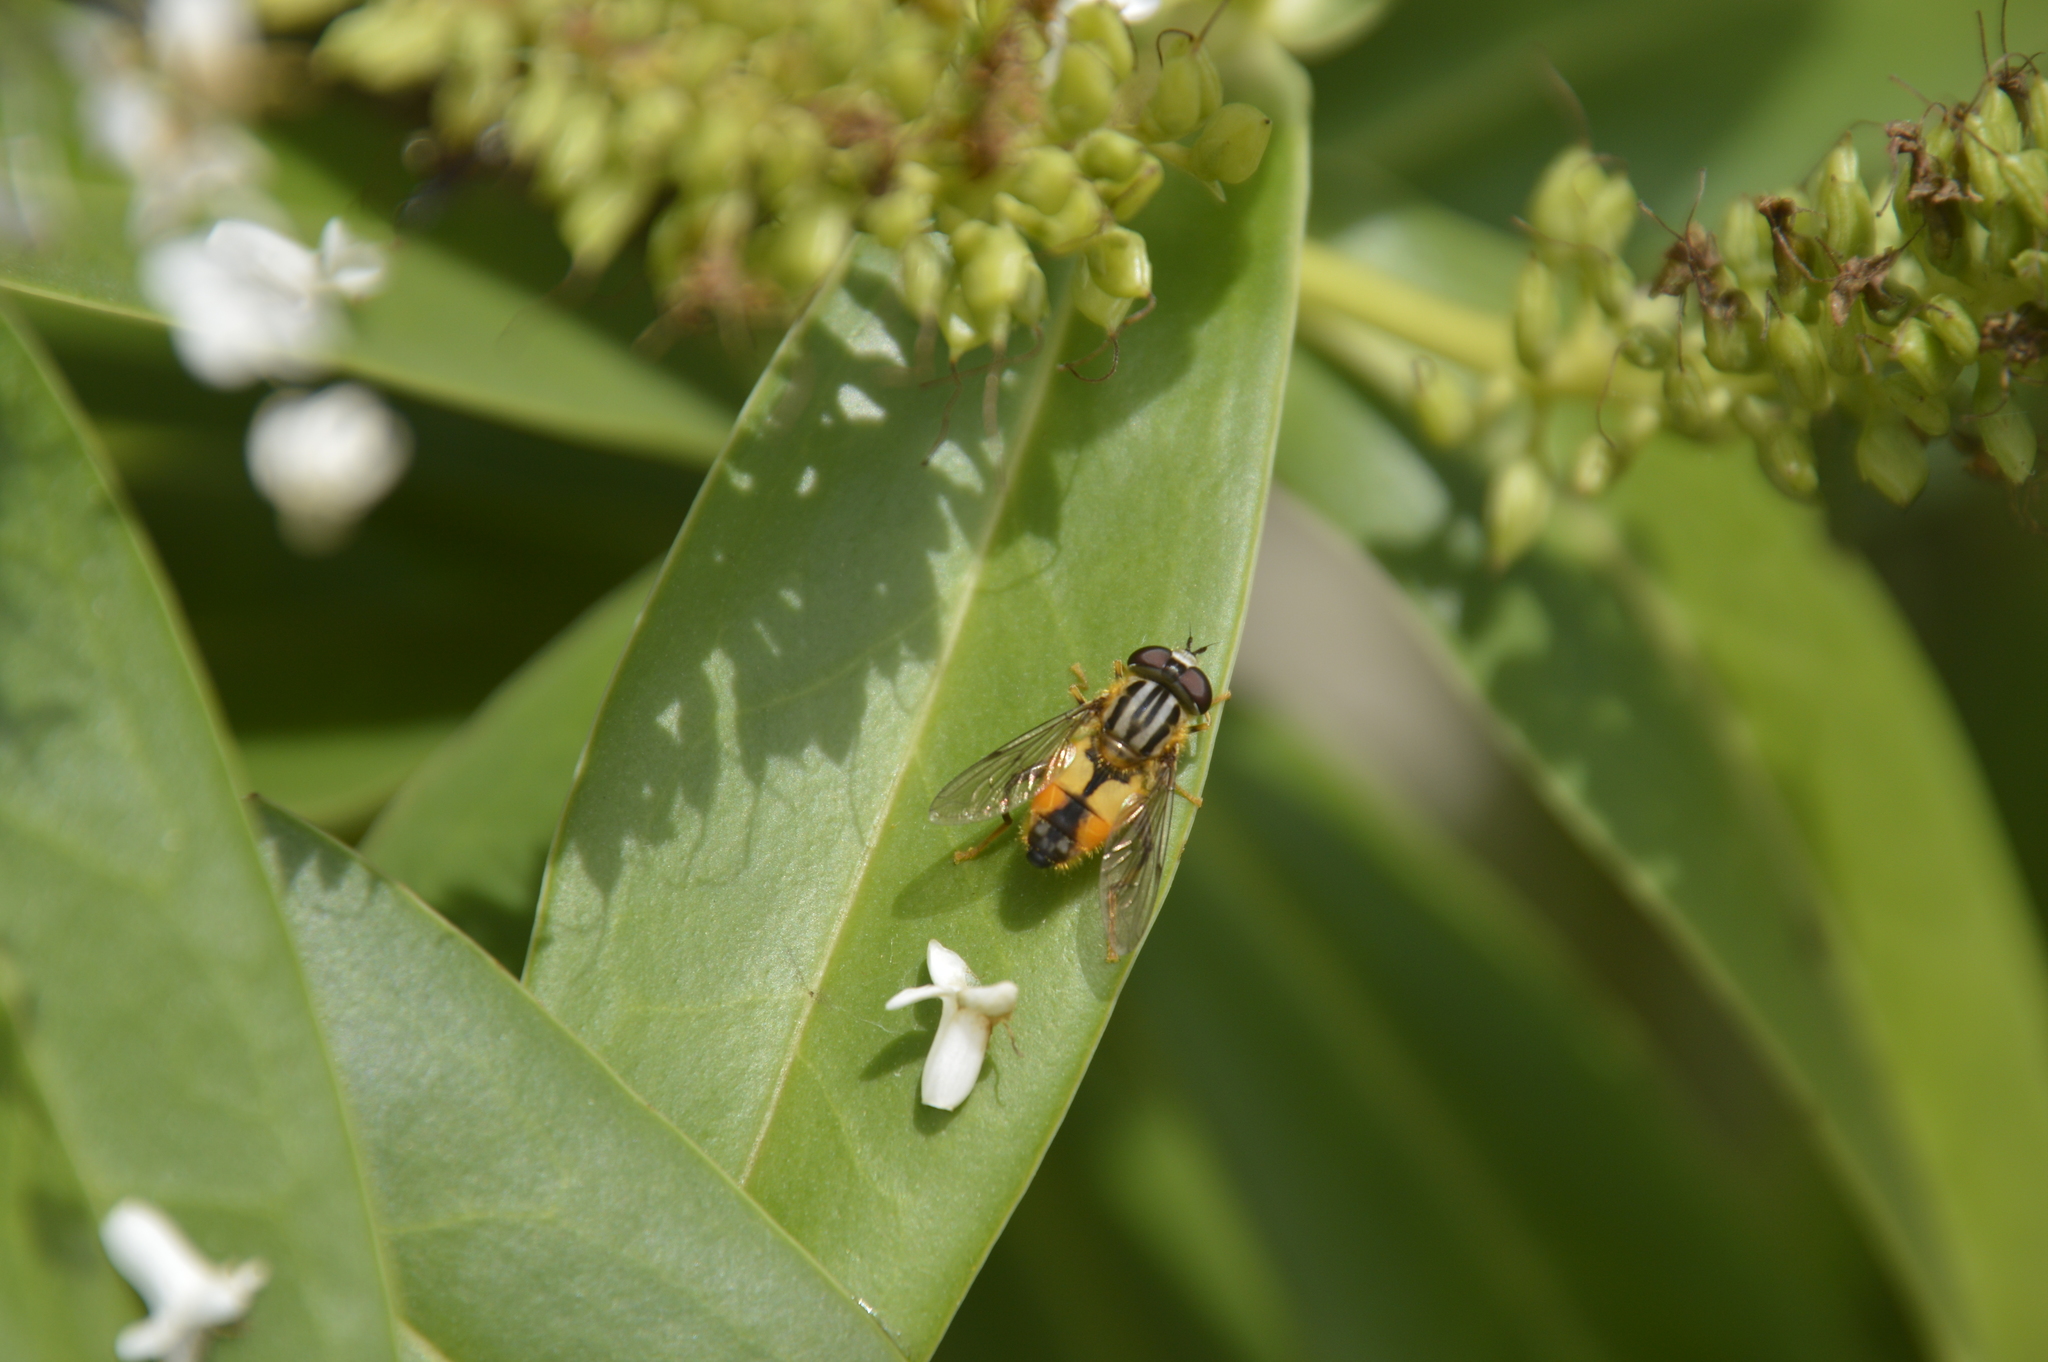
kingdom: Animalia
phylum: Arthropoda
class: Insecta
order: Diptera
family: Syrphidae
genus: Helophilus
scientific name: Helophilus antipodus
